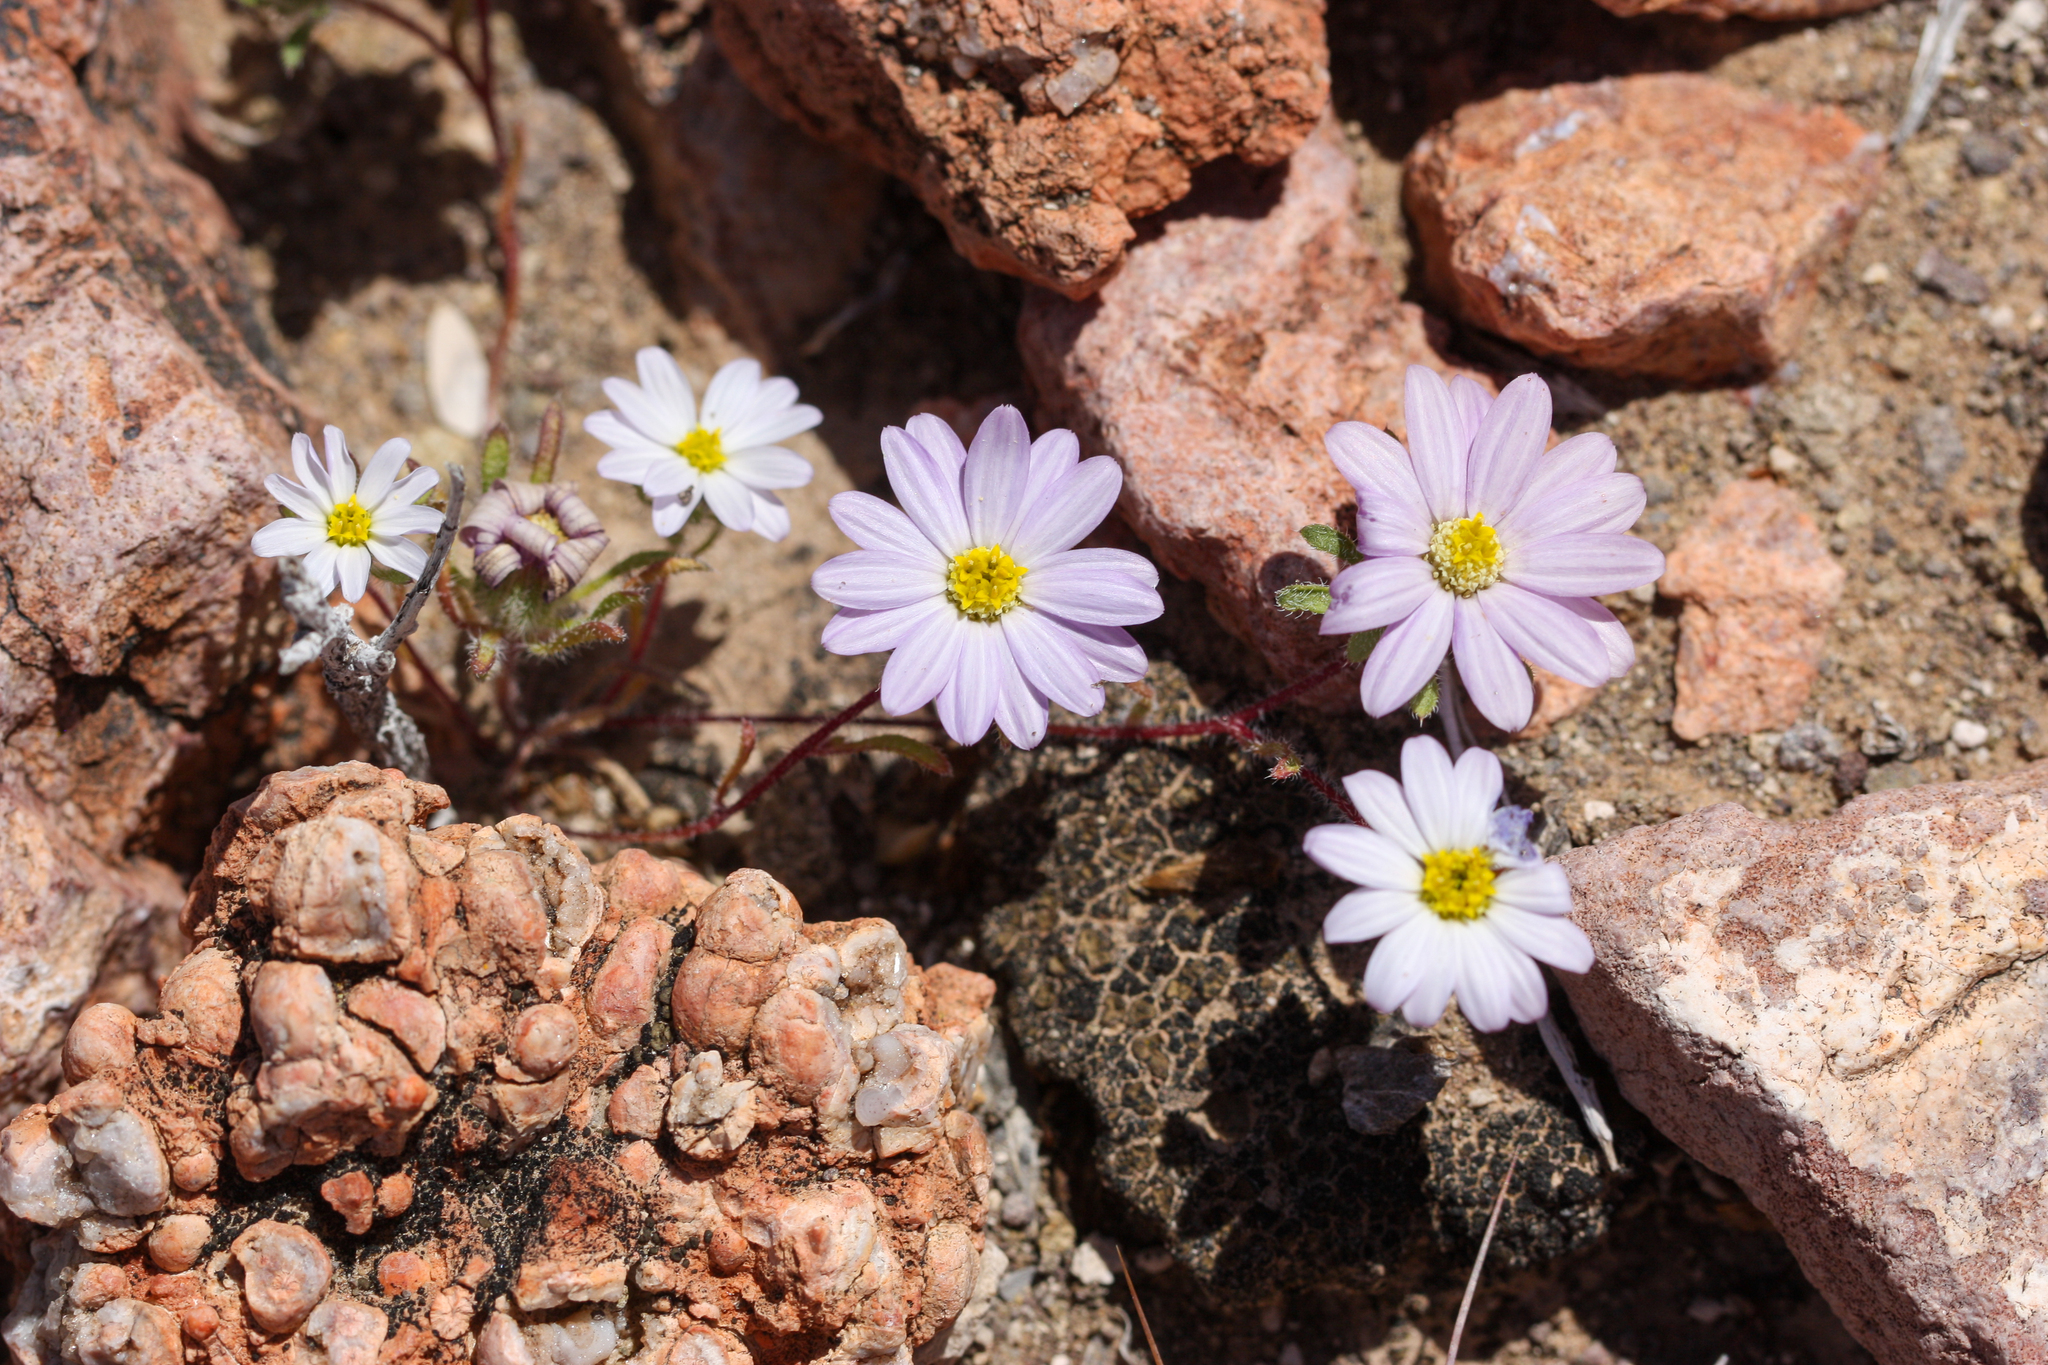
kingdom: Plantae
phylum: Tracheophyta
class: Magnoliopsida
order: Asterales
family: Asteraceae
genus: Monoptilon
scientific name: Monoptilon bellioides
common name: Bristly desertstar
